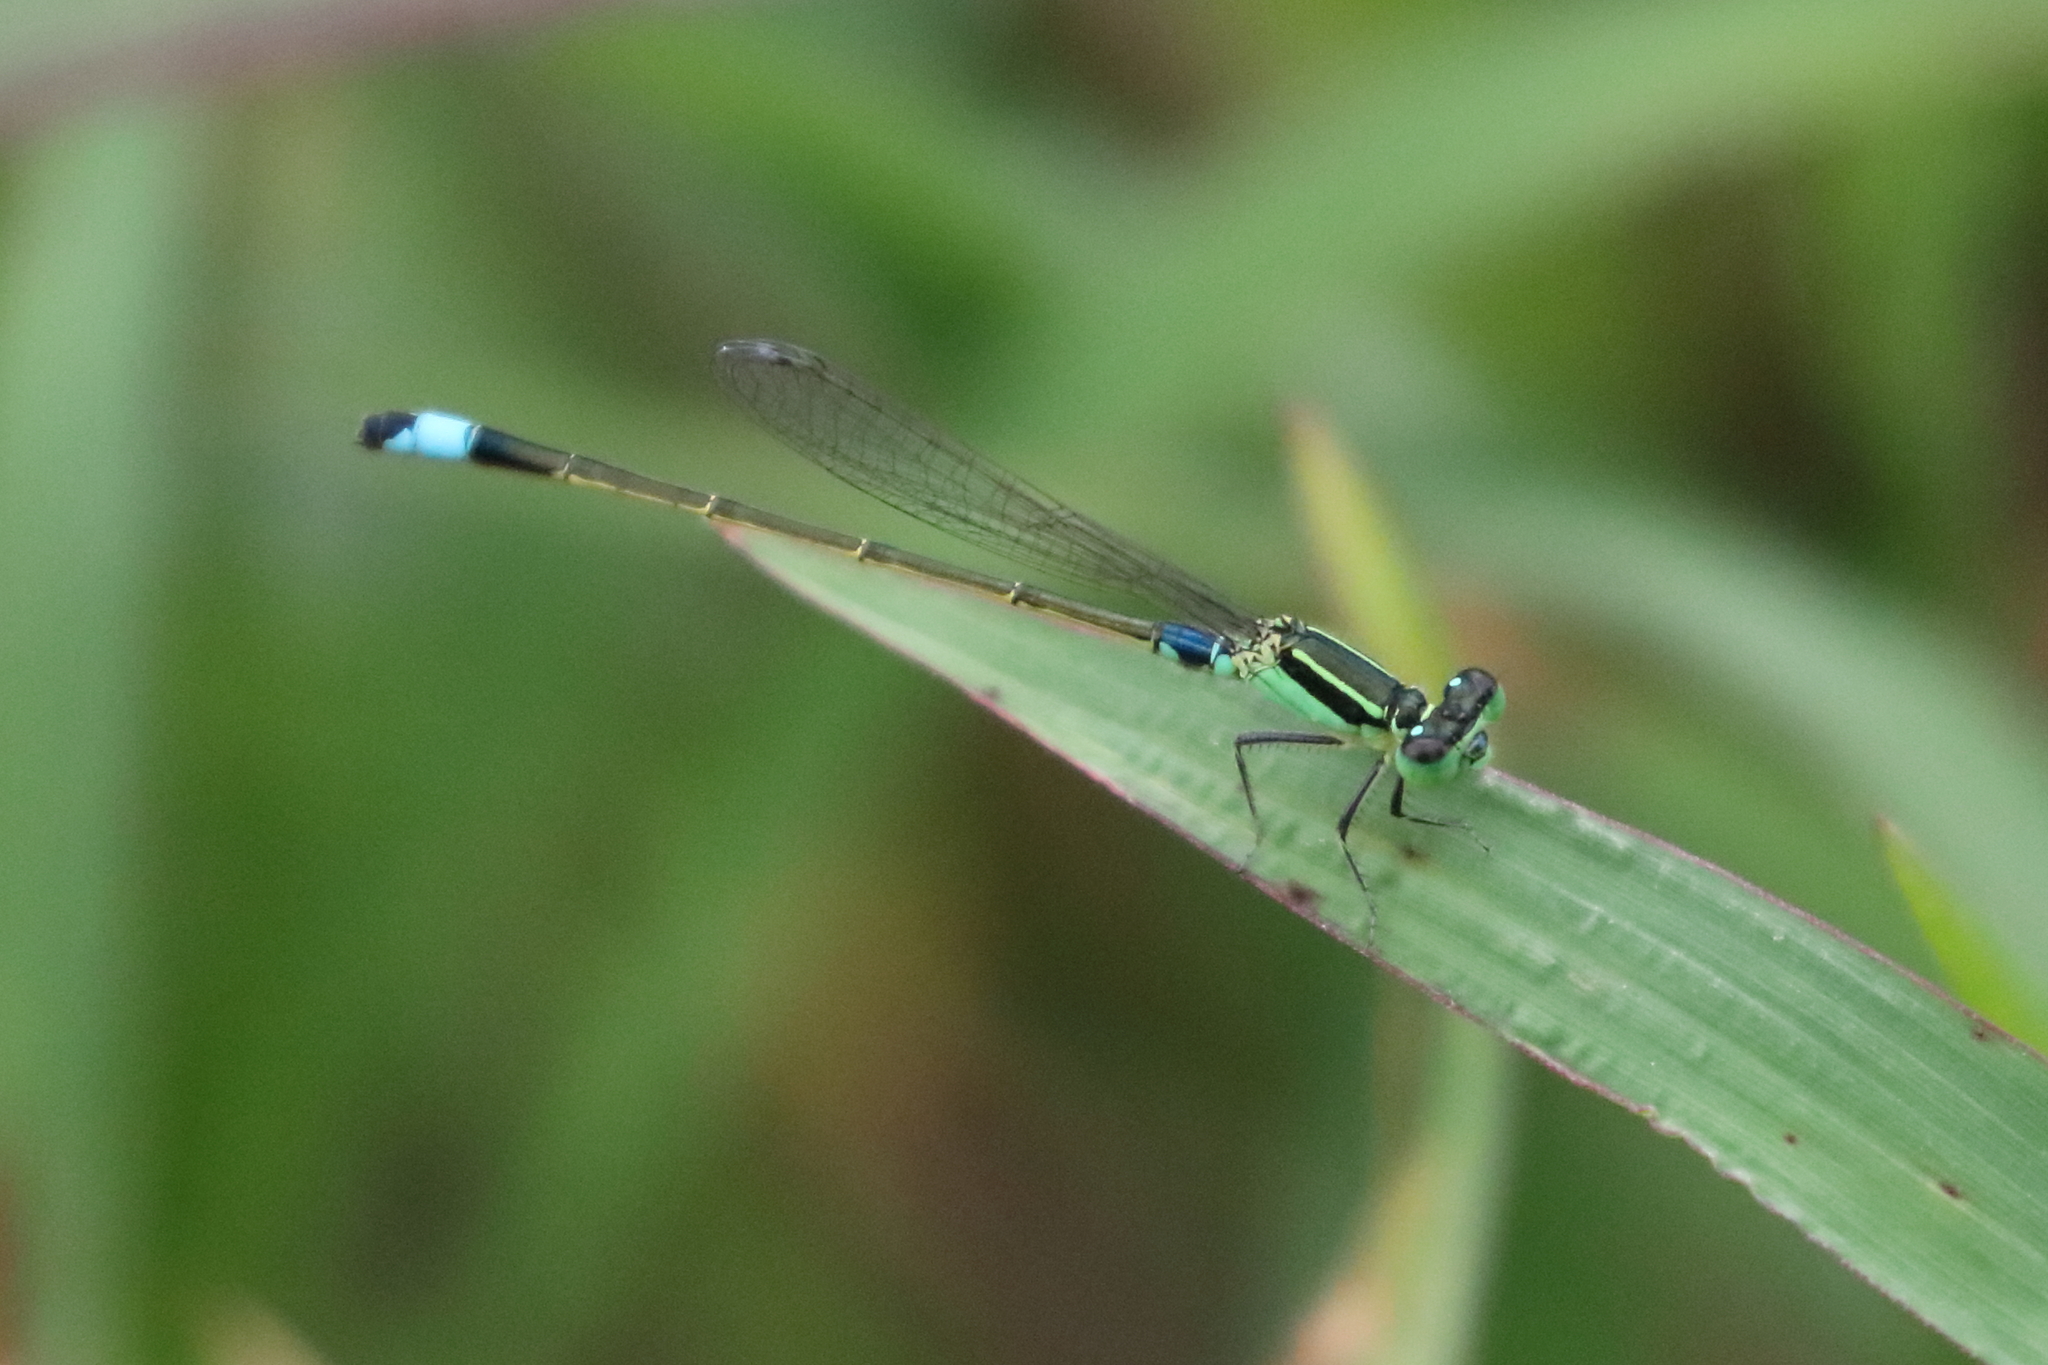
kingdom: Animalia
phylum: Arthropoda
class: Insecta
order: Odonata
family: Coenagrionidae
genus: Ischnura
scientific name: Ischnura senegalensis
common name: Tropical bluetail
